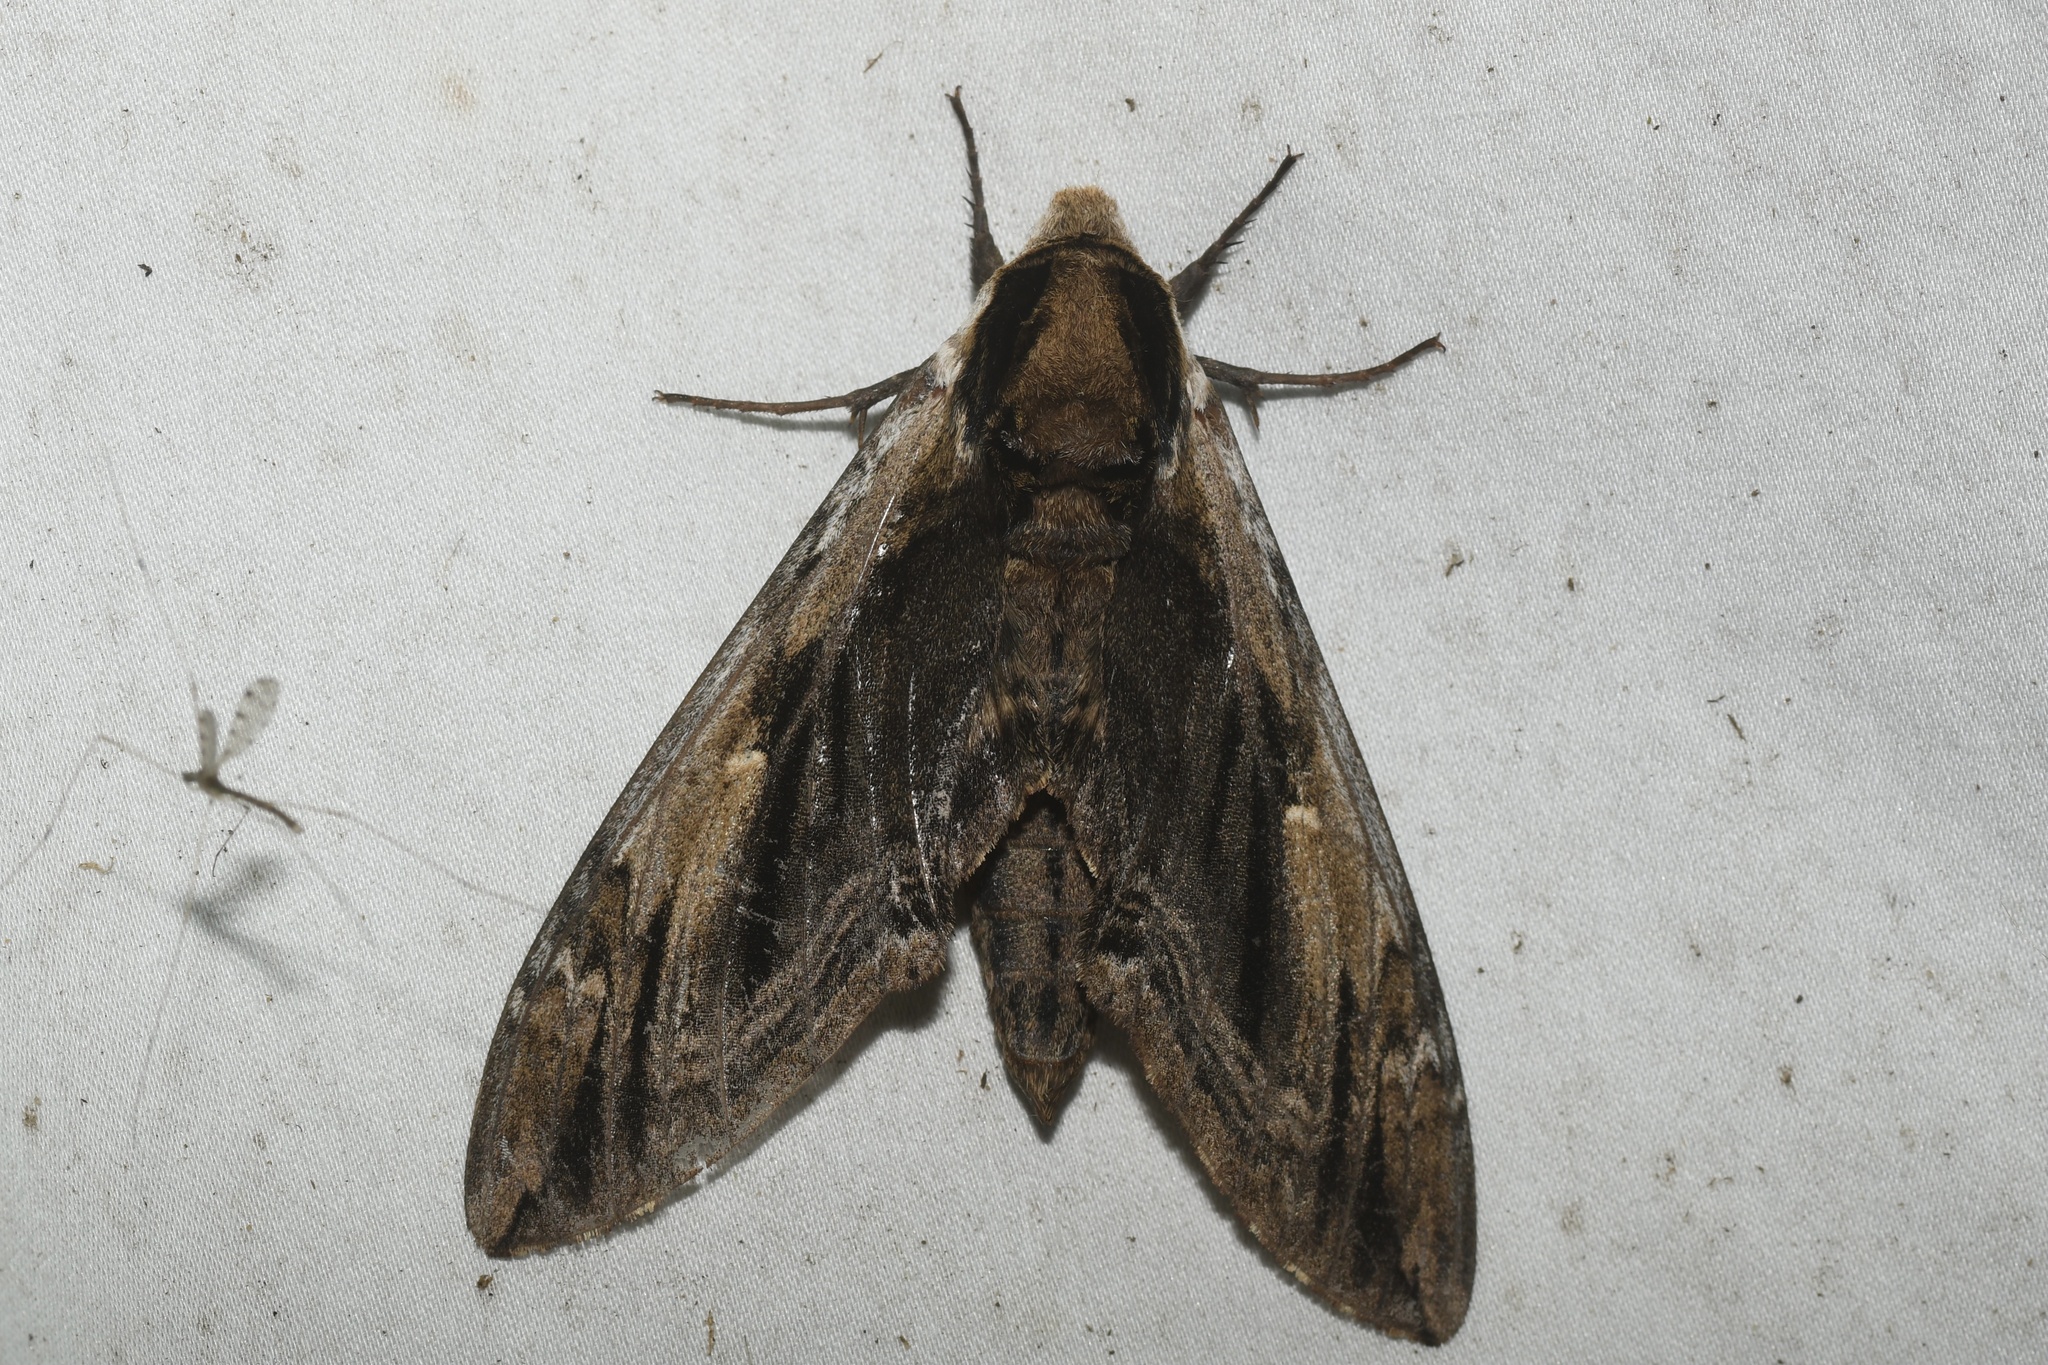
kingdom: Animalia
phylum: Arthropoda
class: Insecta
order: Lepidoptera
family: Sphingidae
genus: Ceratomia
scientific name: Ceratomia amyntor
